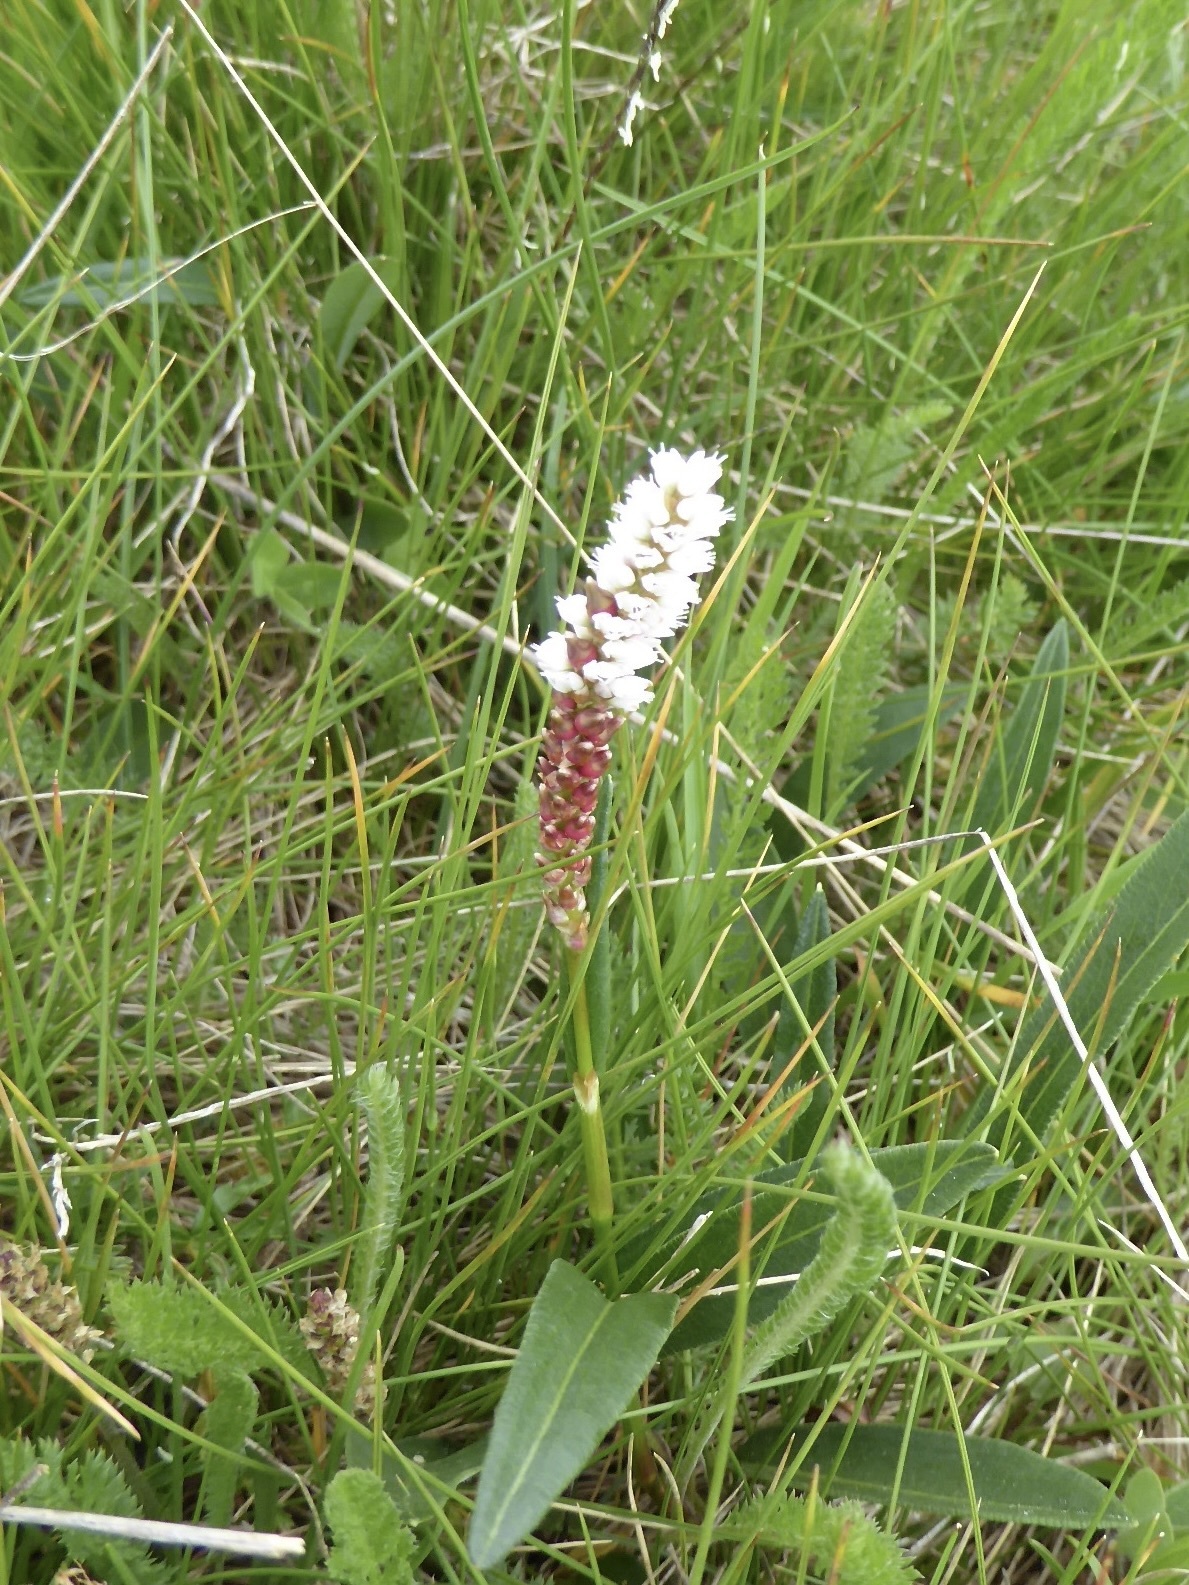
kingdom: Plantae
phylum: Tracheophyta
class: Magnoliopsida
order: Caryophyllales
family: Polygonaceae
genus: Bistorta
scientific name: Bistorta vivipara
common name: Alpine bistort
